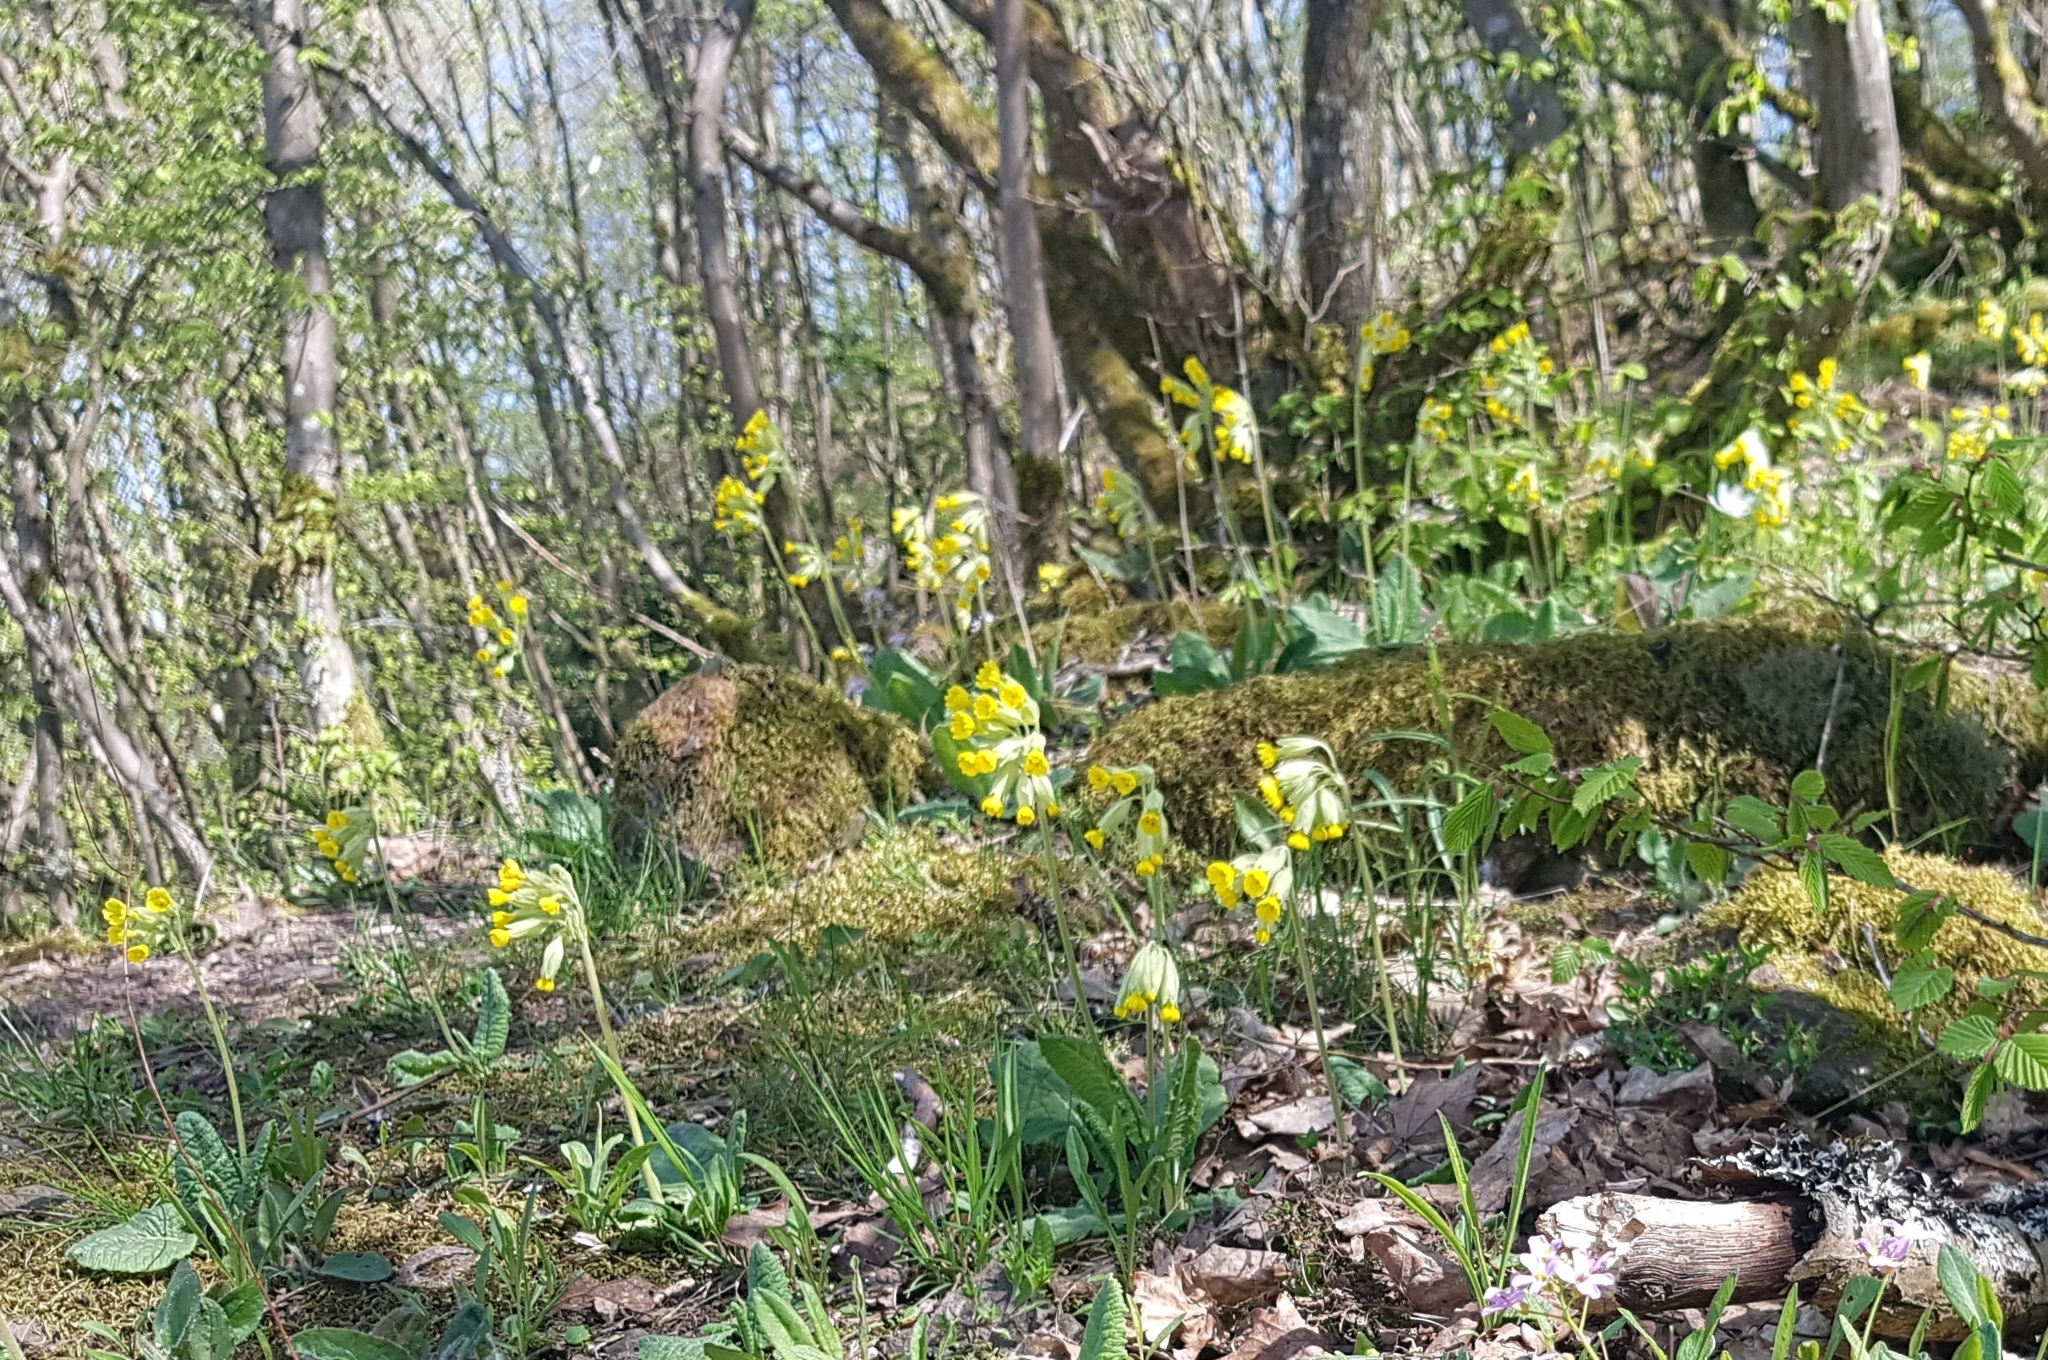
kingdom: Plantae
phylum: Tracheophyta
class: Magnoliopsida
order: Ericales
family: Primulaceae
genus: Primula
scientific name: Primula veris
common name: Cowslip
